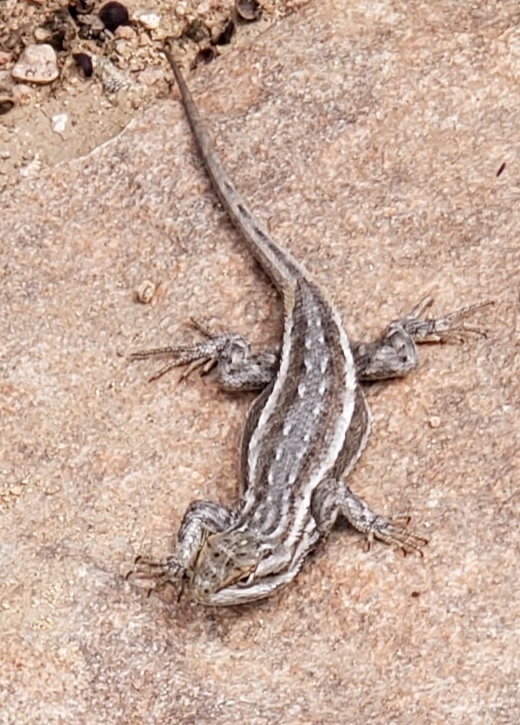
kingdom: Animalia
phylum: Chordata
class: Squamata
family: Phrynosomatidae
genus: Sceloporus
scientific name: Sceloporus cowlesi
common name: White sands prairie lizard
